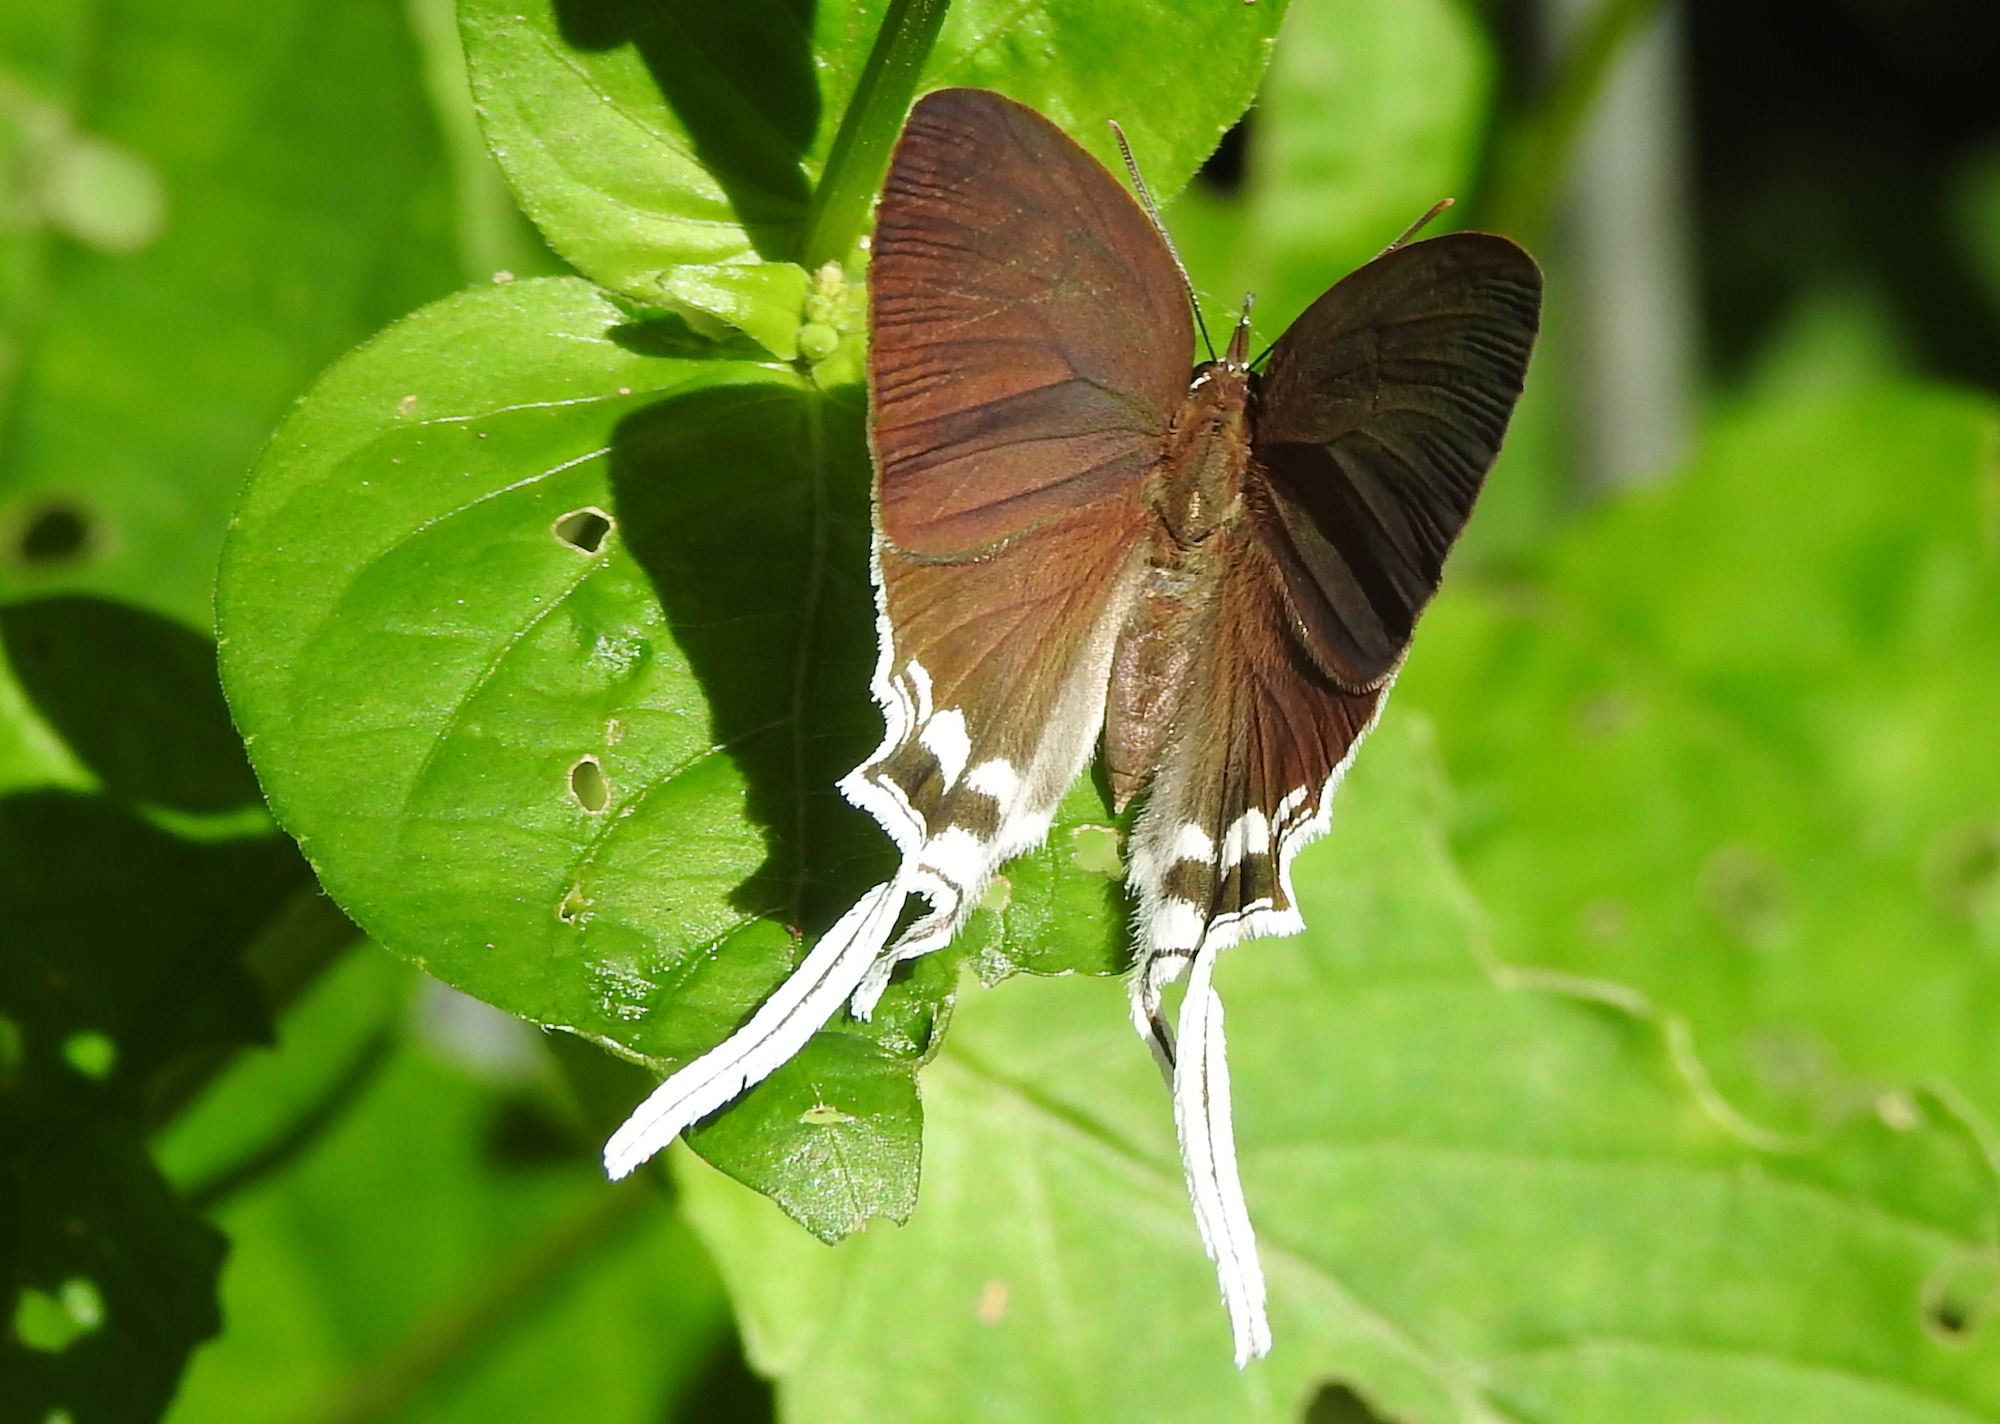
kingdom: Animalia
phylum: Arthropoda
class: Insecta
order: Lepidoptera
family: Lycaenidae
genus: Cheritra
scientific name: Cheritra freja
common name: Common imperial
